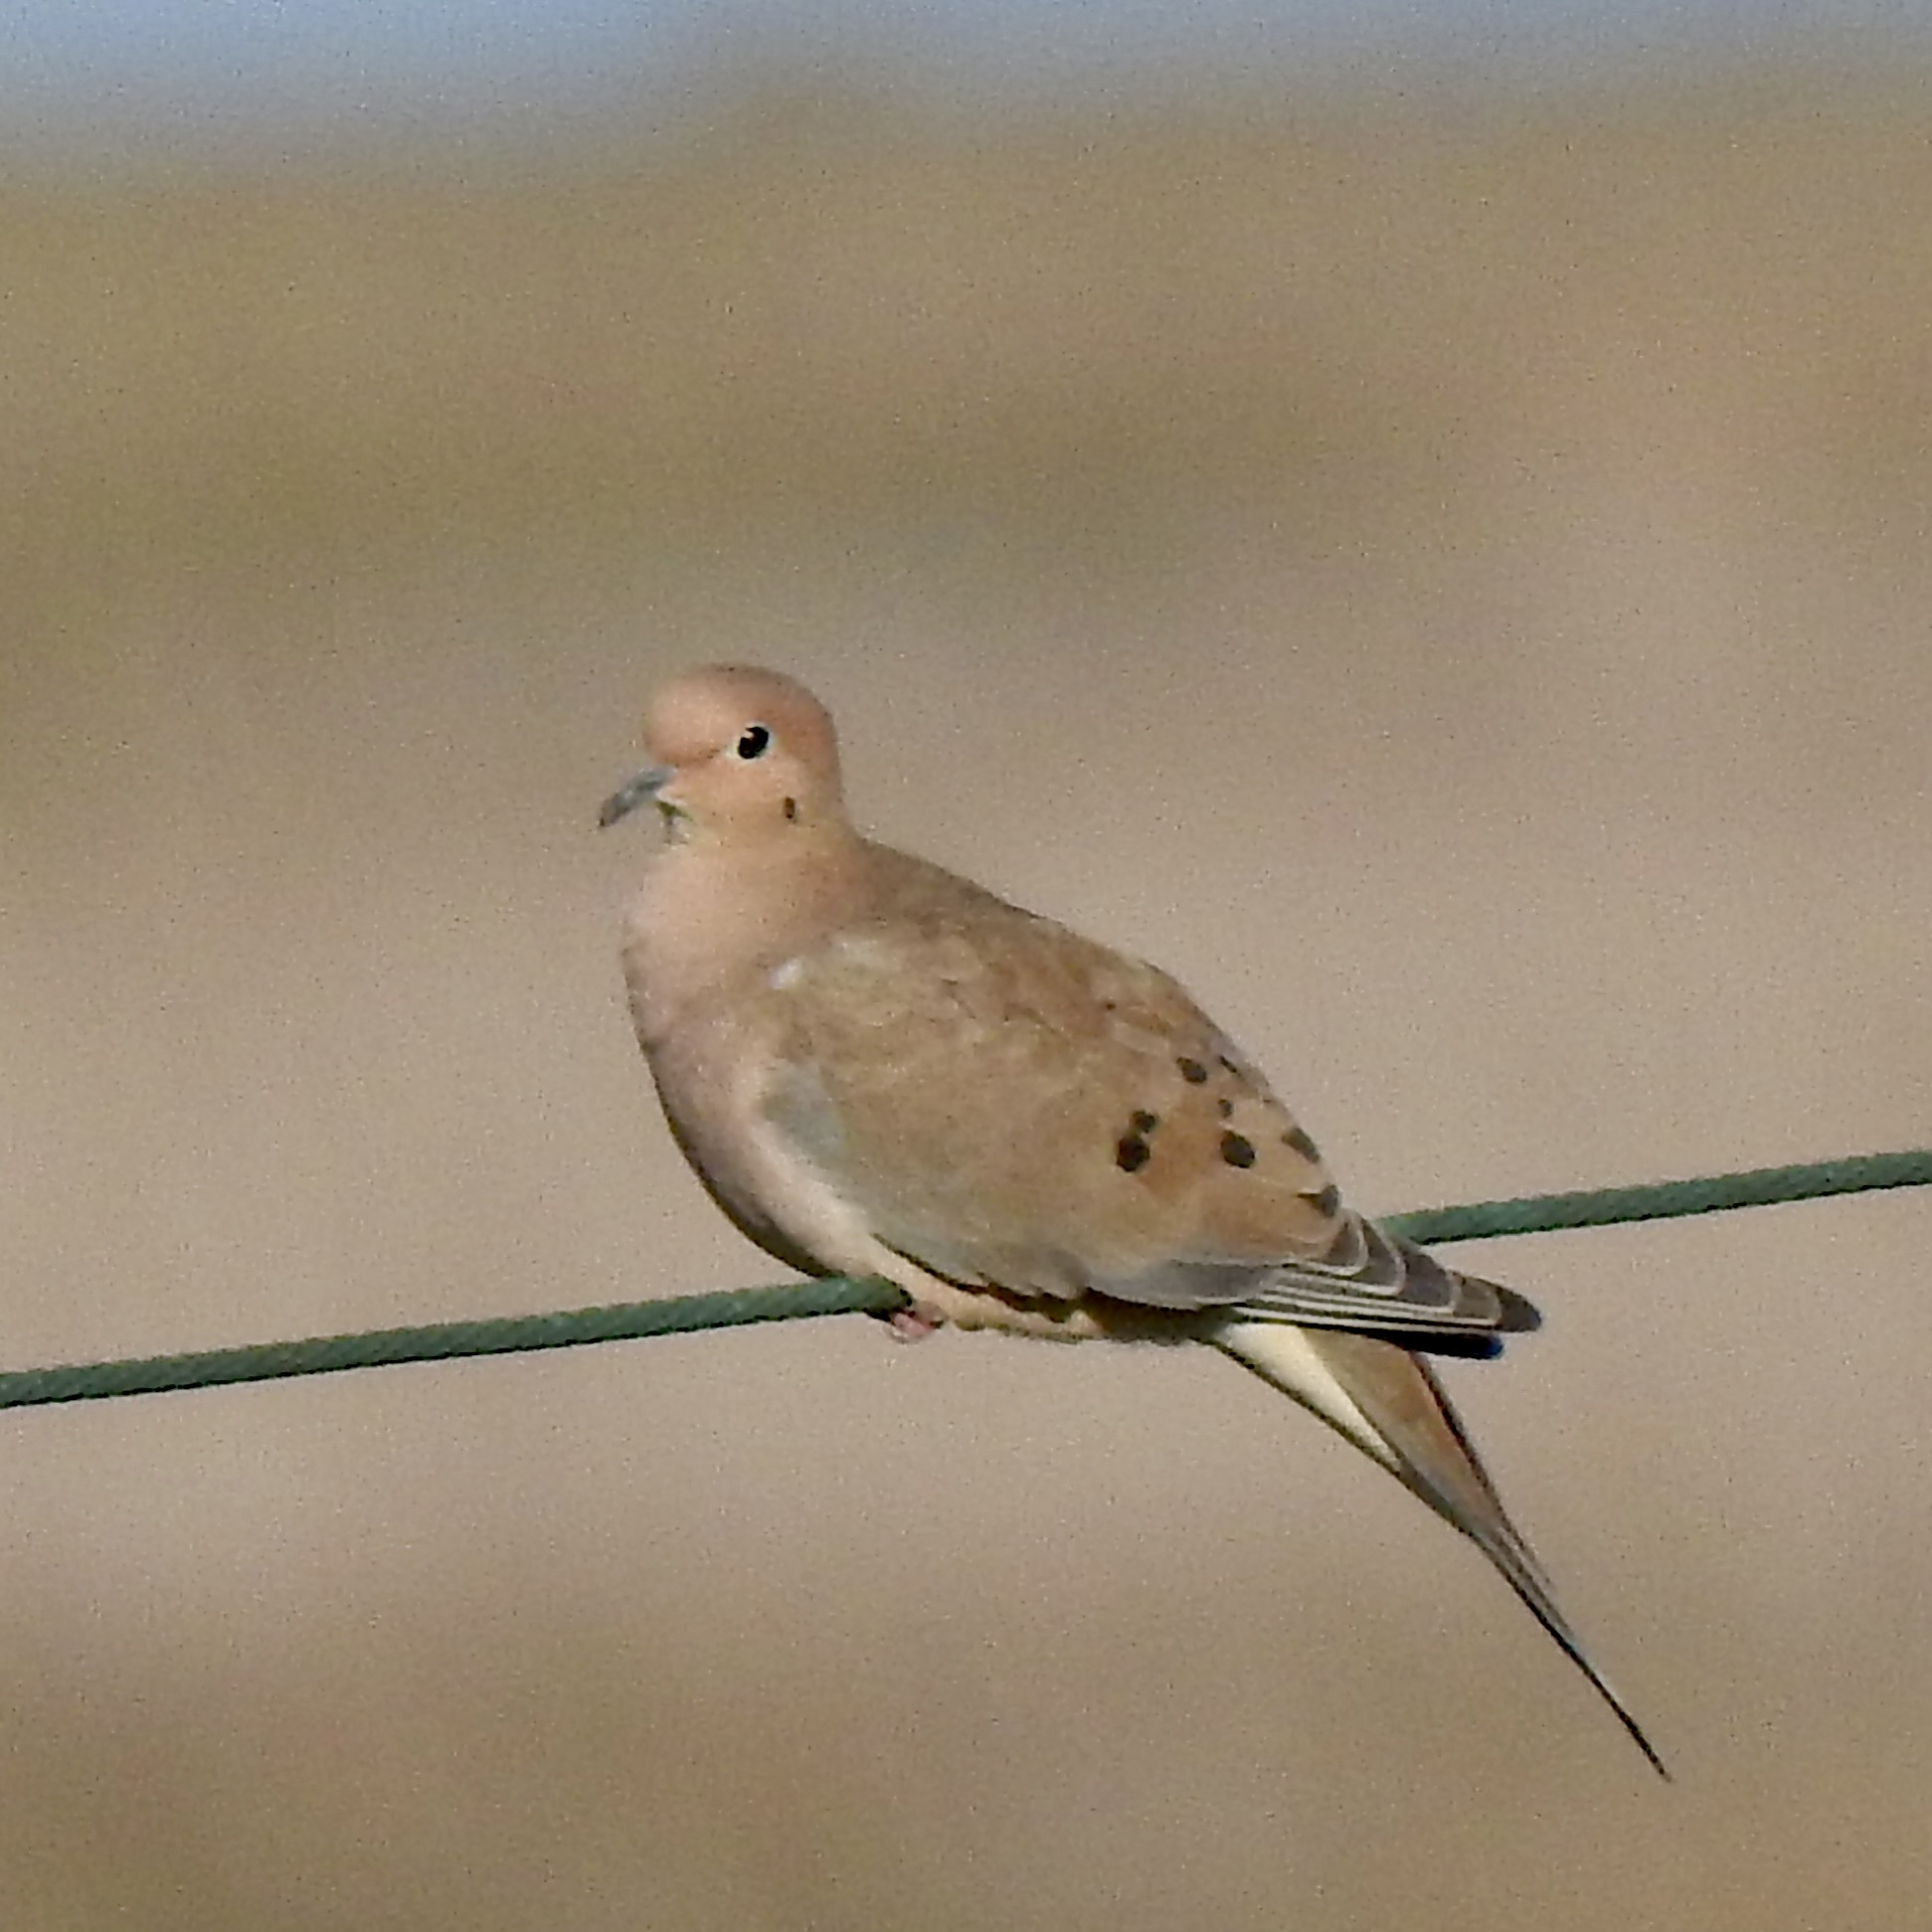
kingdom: Animalia
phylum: Chordata
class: Aves
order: Columbiformes
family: Columbidae
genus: Zenaida
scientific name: Zenaida macroura
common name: Mourning dove
